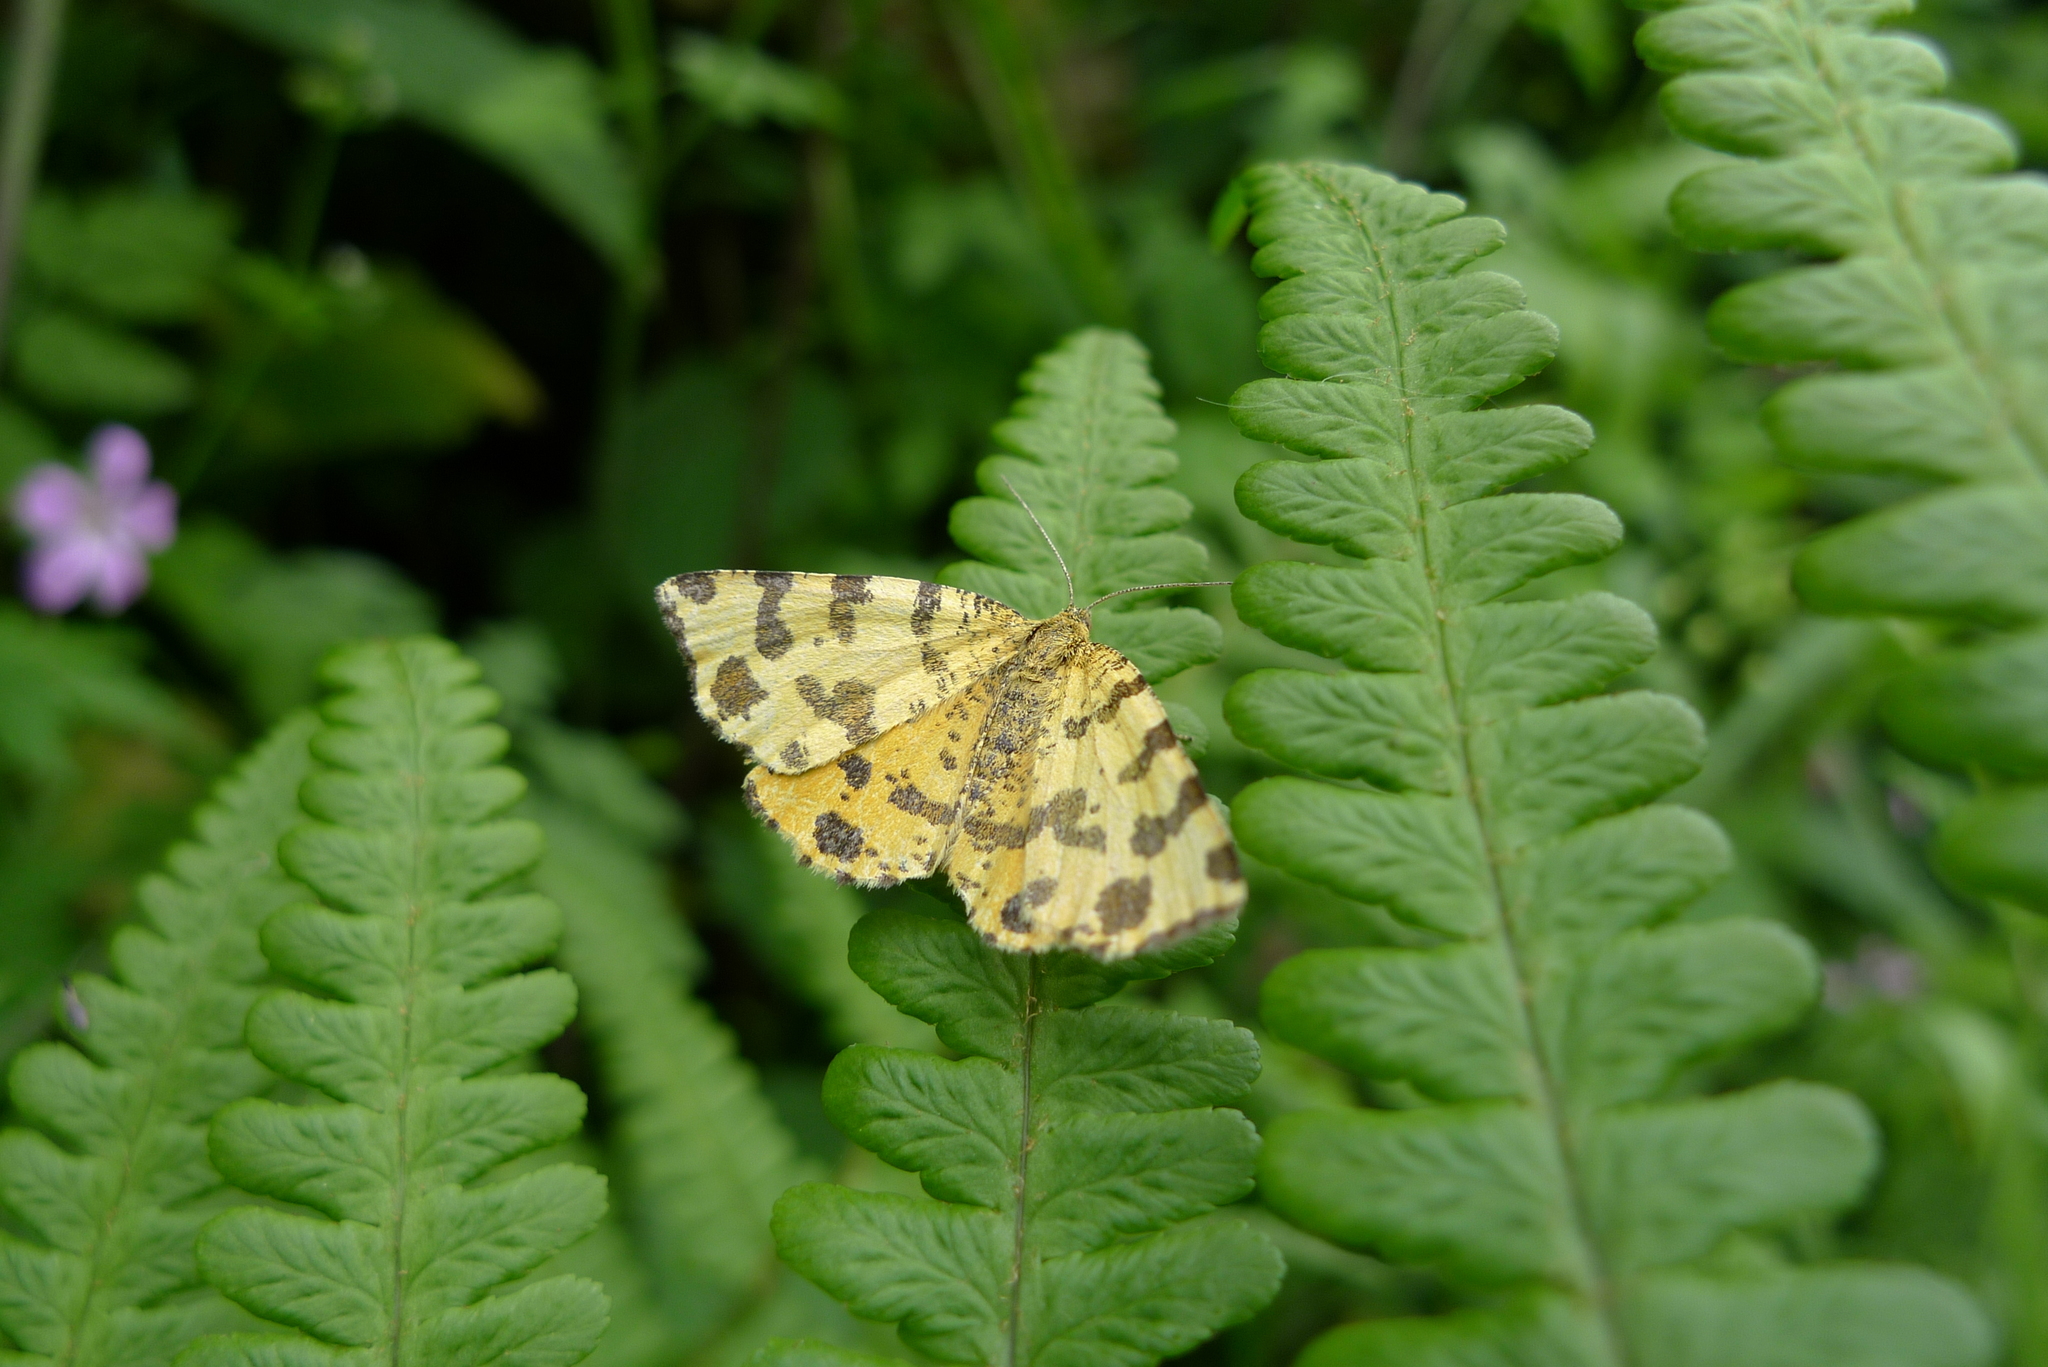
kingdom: Animalia
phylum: Arthropoda
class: Insecta
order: Lepidoptera
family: Geometridae
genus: Pseudopanthera
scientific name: Pseudopanthera macularia
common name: Speckled yellow
